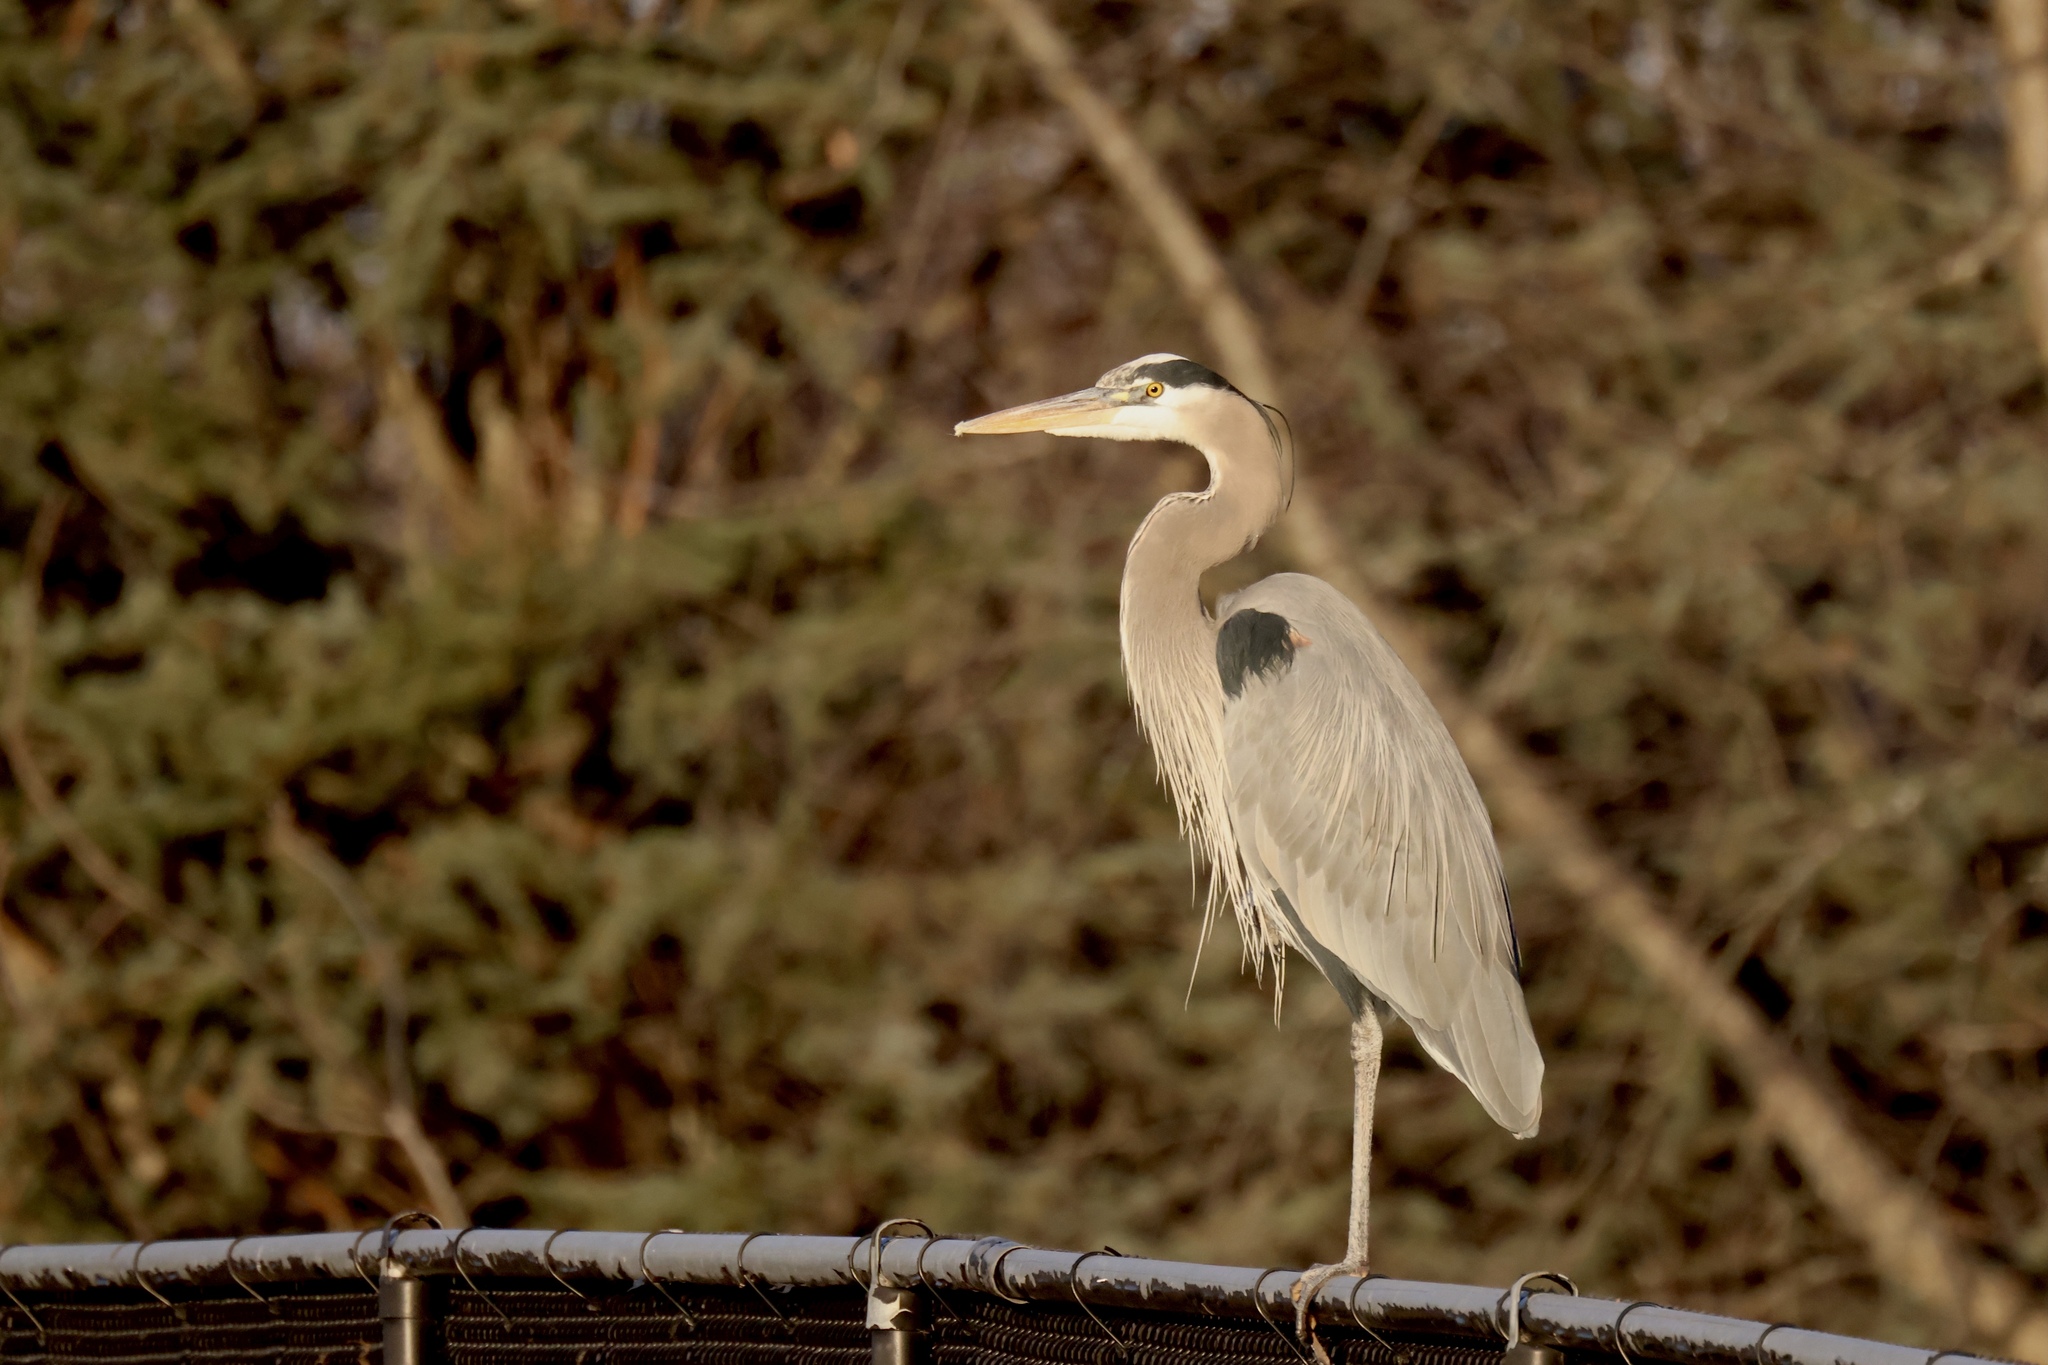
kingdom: Animalia
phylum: Chordata
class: Aves
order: Pelecaniformes
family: Ardeidae
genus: Ardea
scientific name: Ardea herodias
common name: Great blue heron
